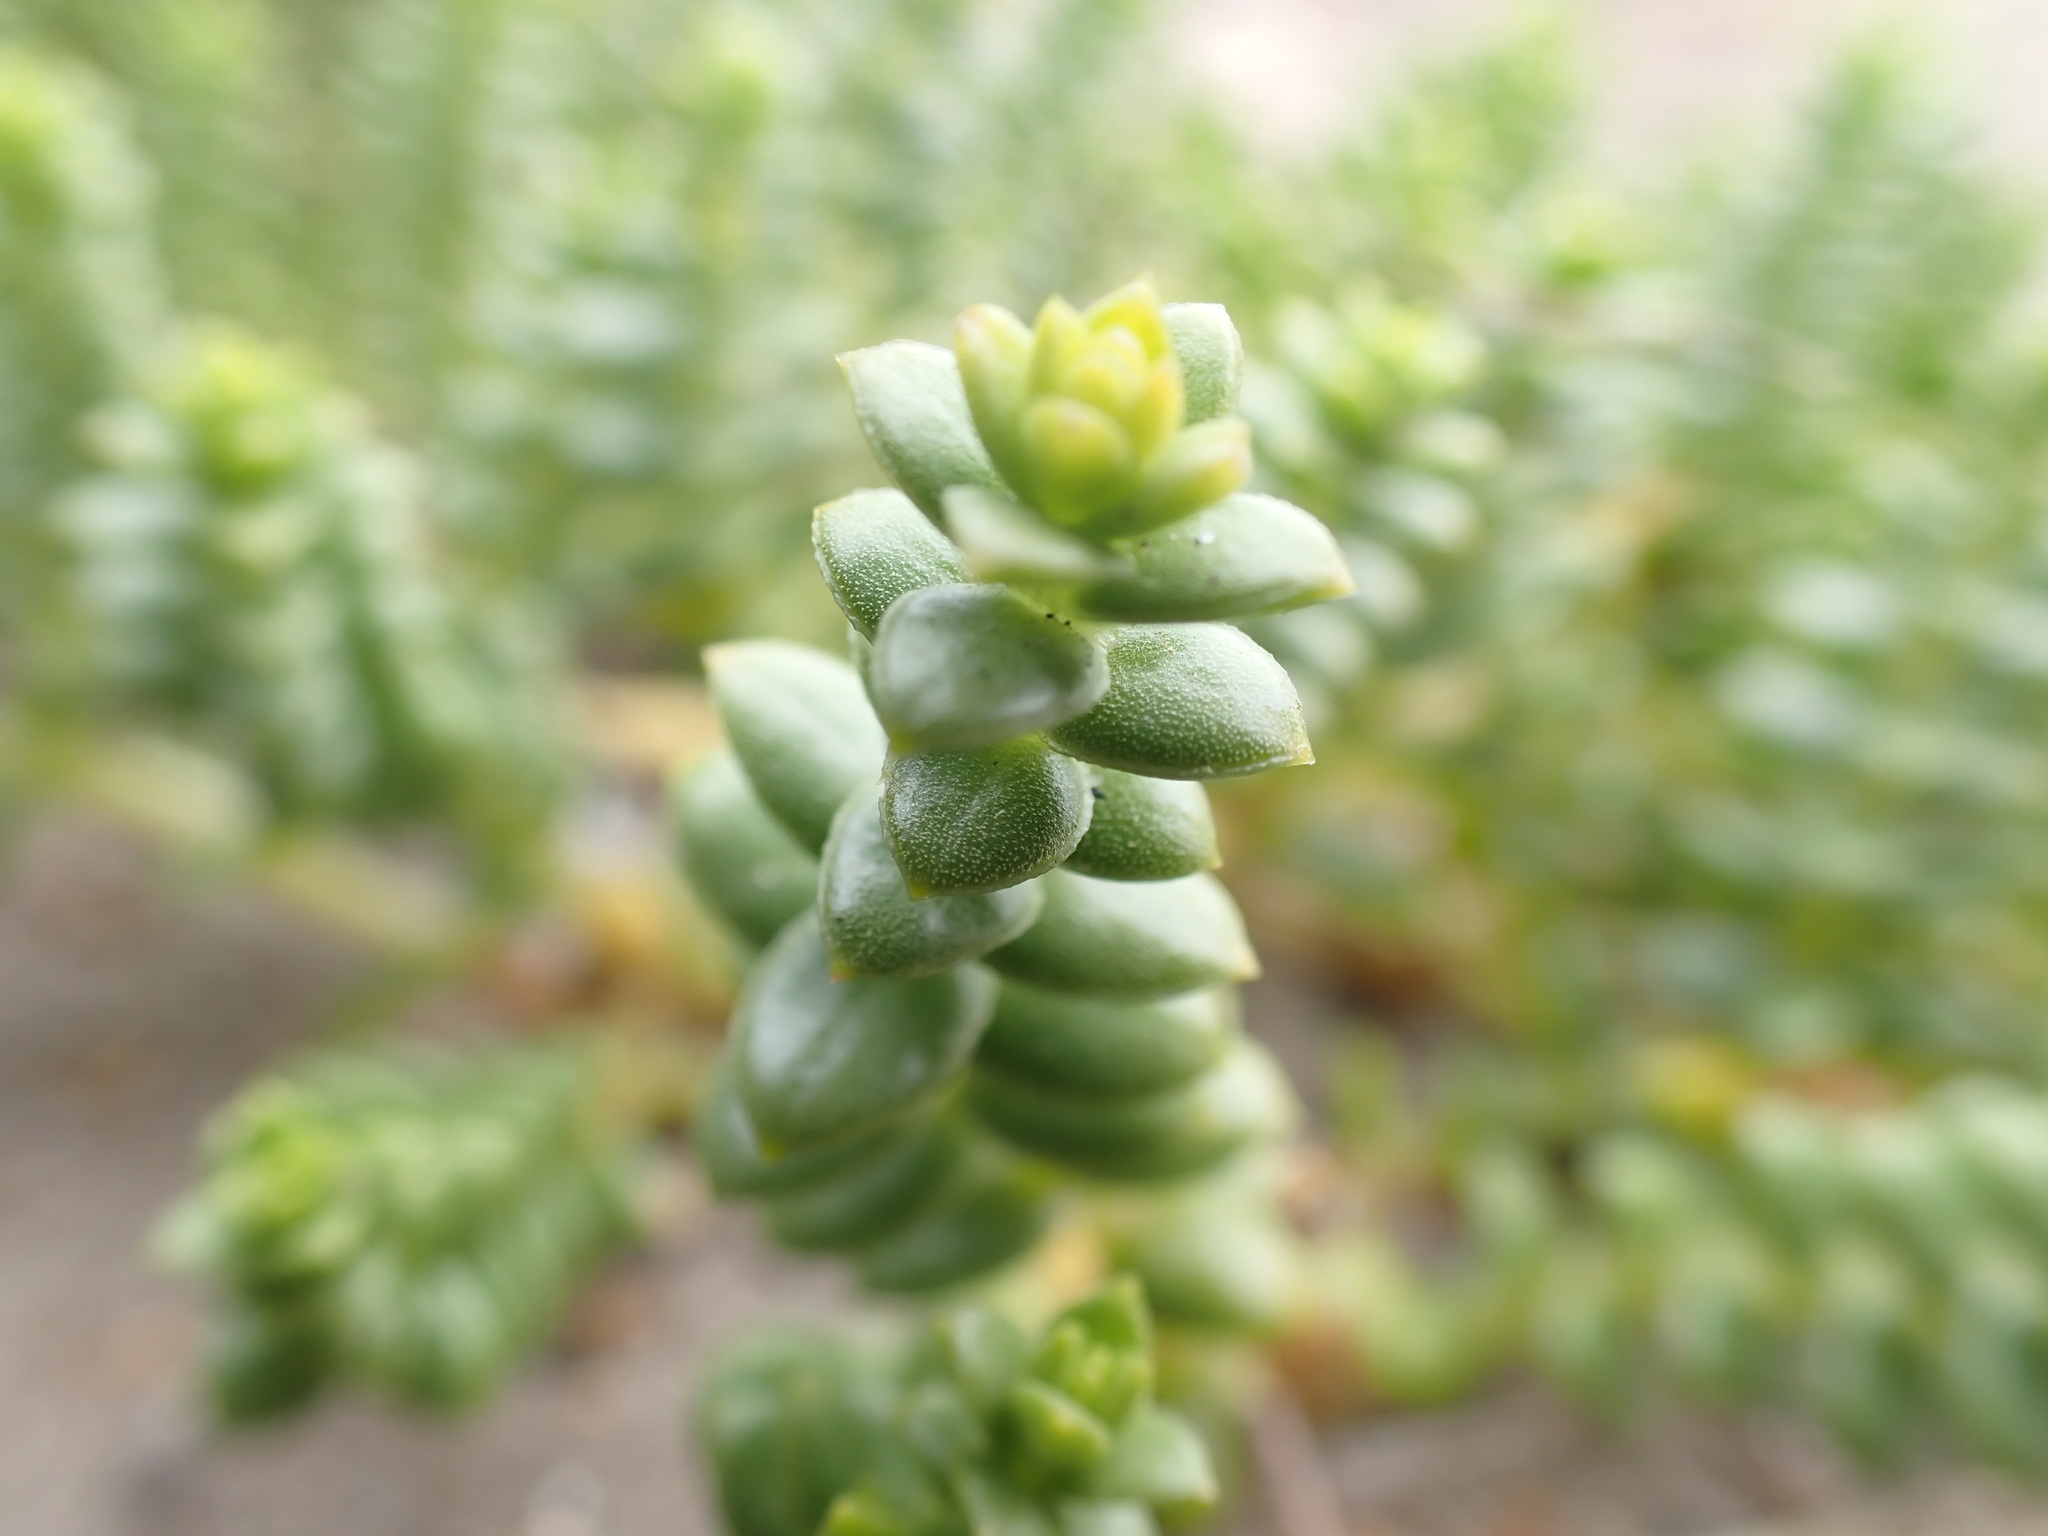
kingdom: Plantae
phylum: Tracheophyta
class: Magnoliopsida
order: Caryophyllales
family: Caryophyllaceae
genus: Honckenya
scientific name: Honckenya peploides
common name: Sea sandwort
